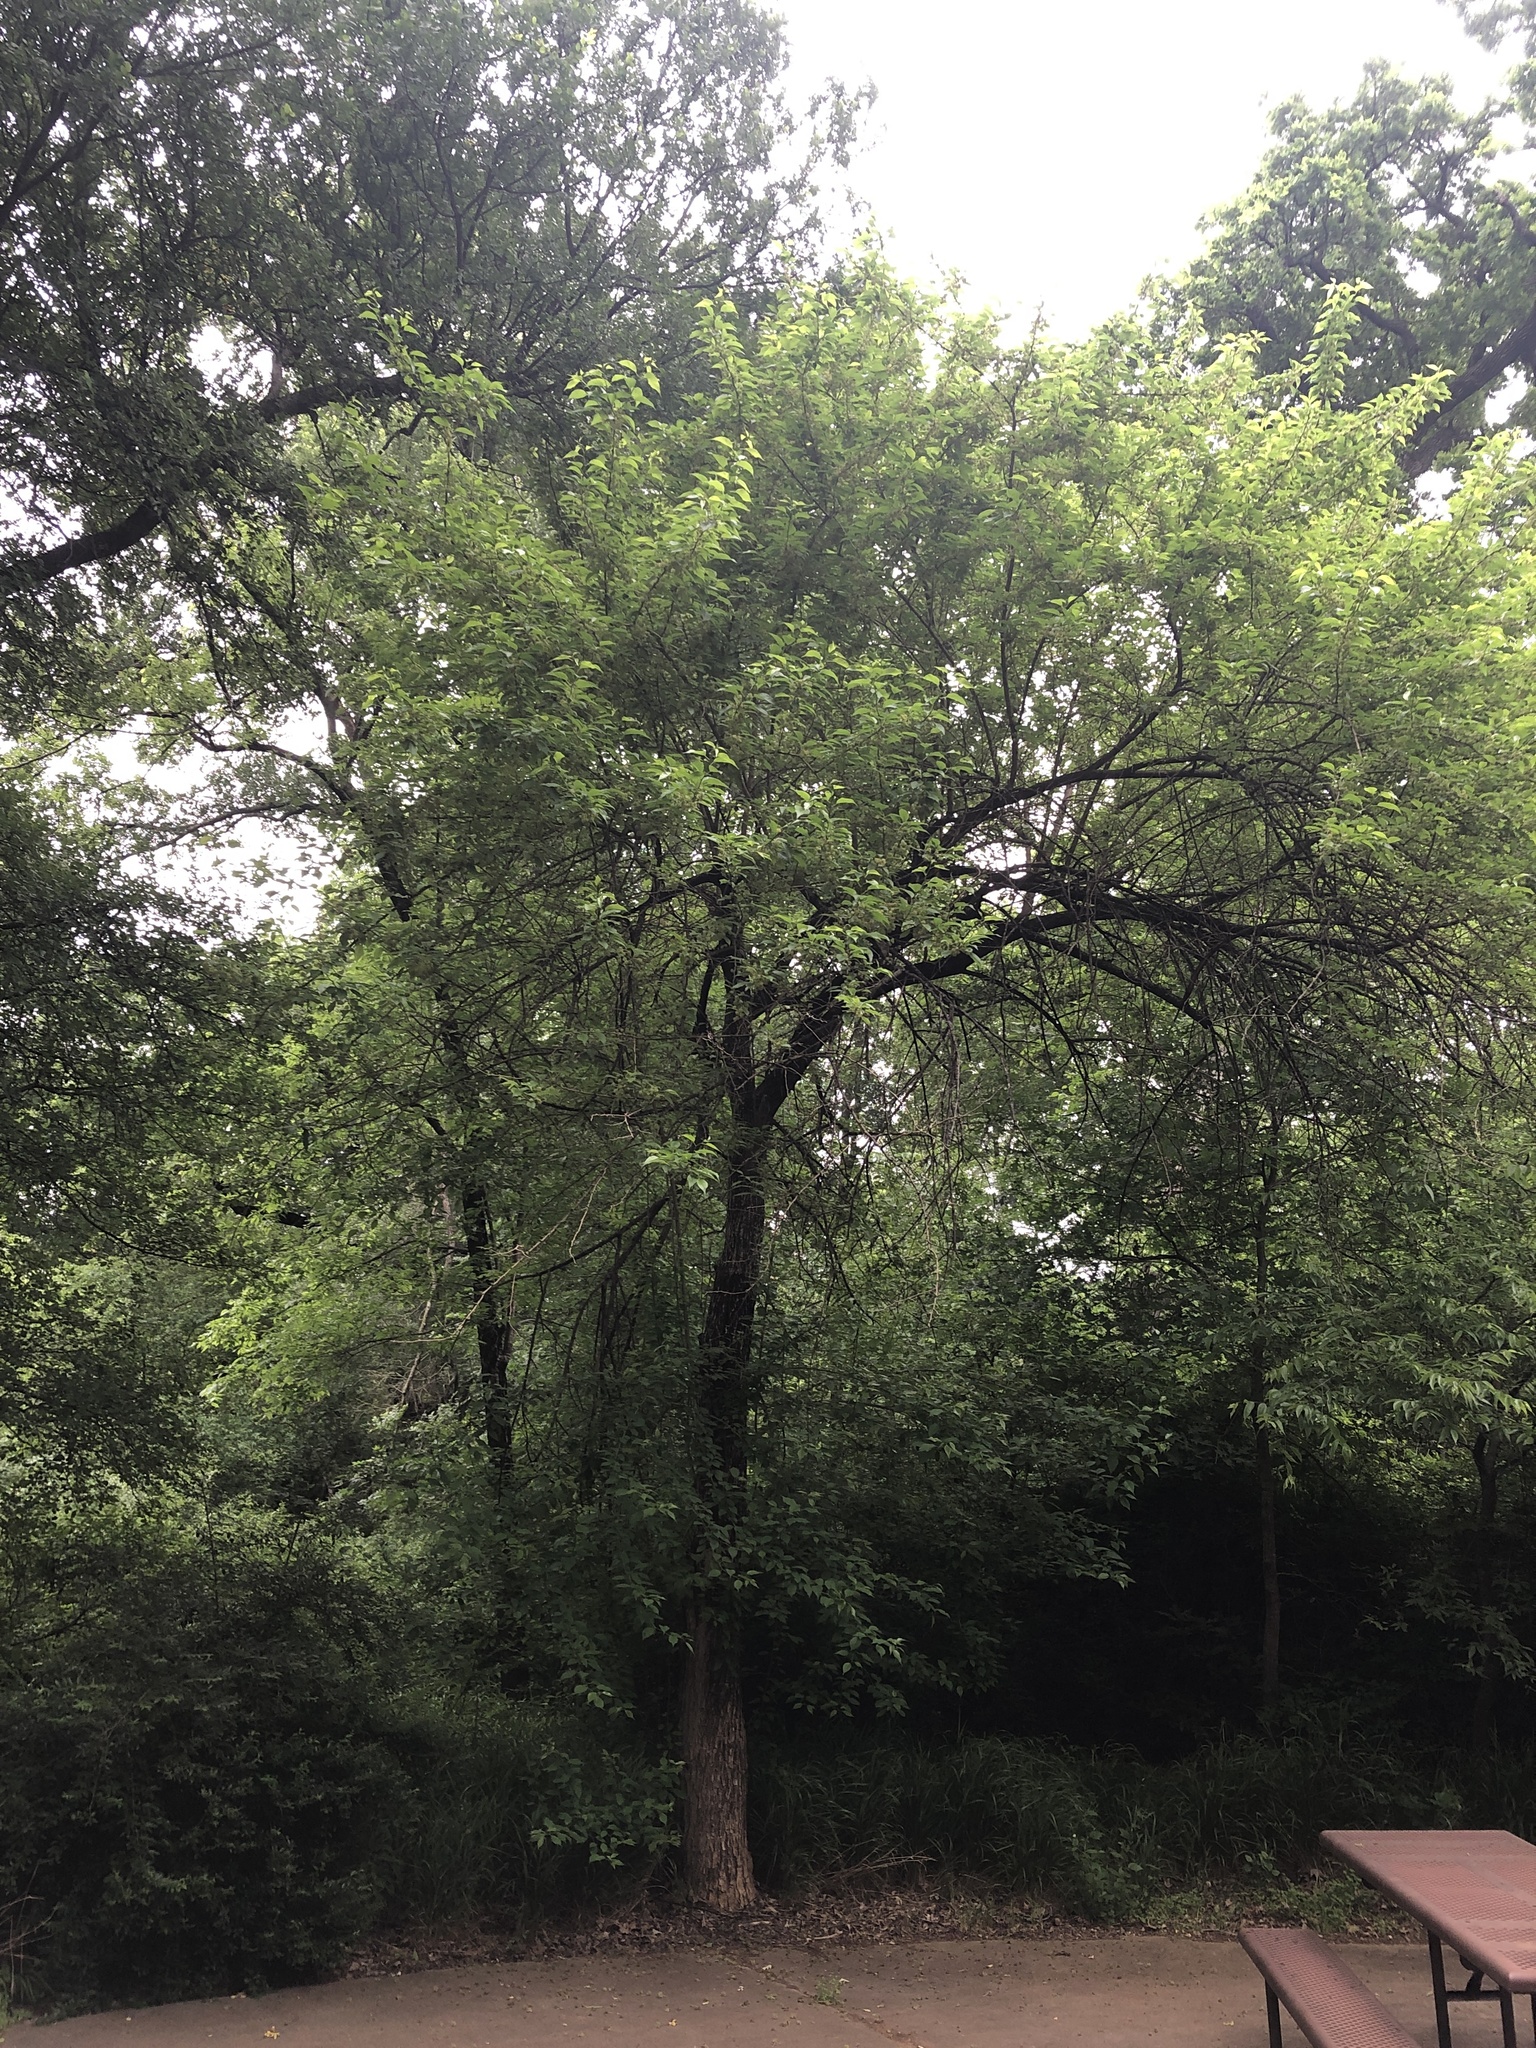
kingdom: Plantae
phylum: Tracheophyta
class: Magnoliopsida
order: Rosales
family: Moraceae
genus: Maclura
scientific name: Maclura pomifera
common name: Osage-orange
